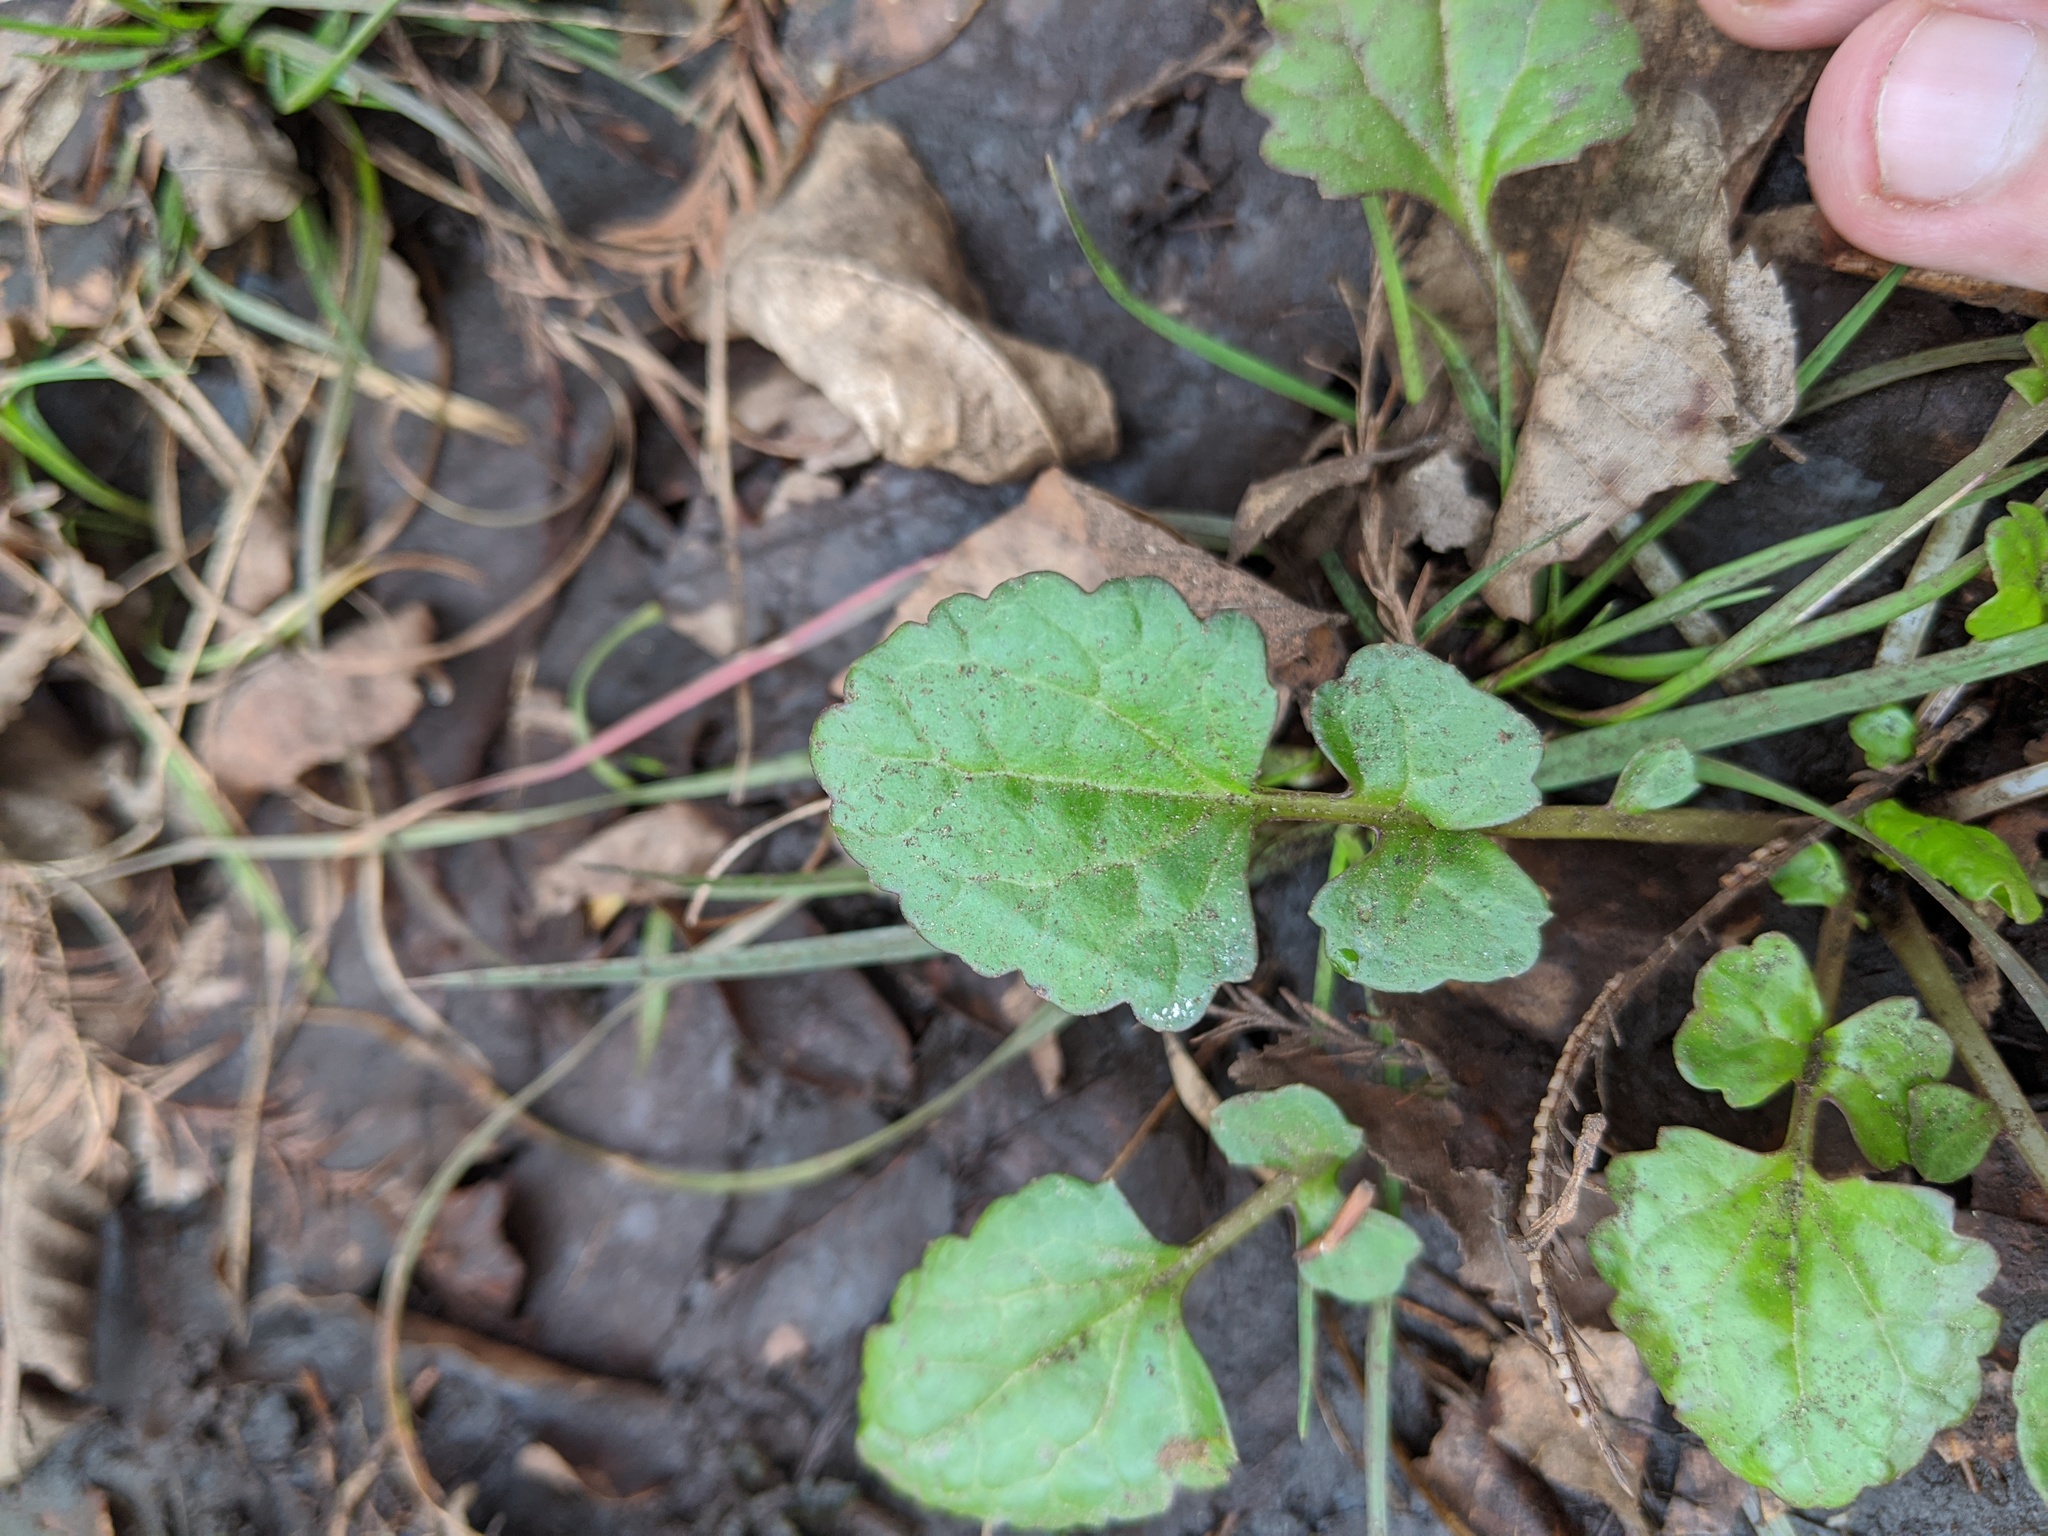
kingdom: Plantae
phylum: Tracheophyta
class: Magnoliopsida
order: Asterales
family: Asteraceae
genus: Packera
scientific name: Packera glabella
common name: Butterweed
